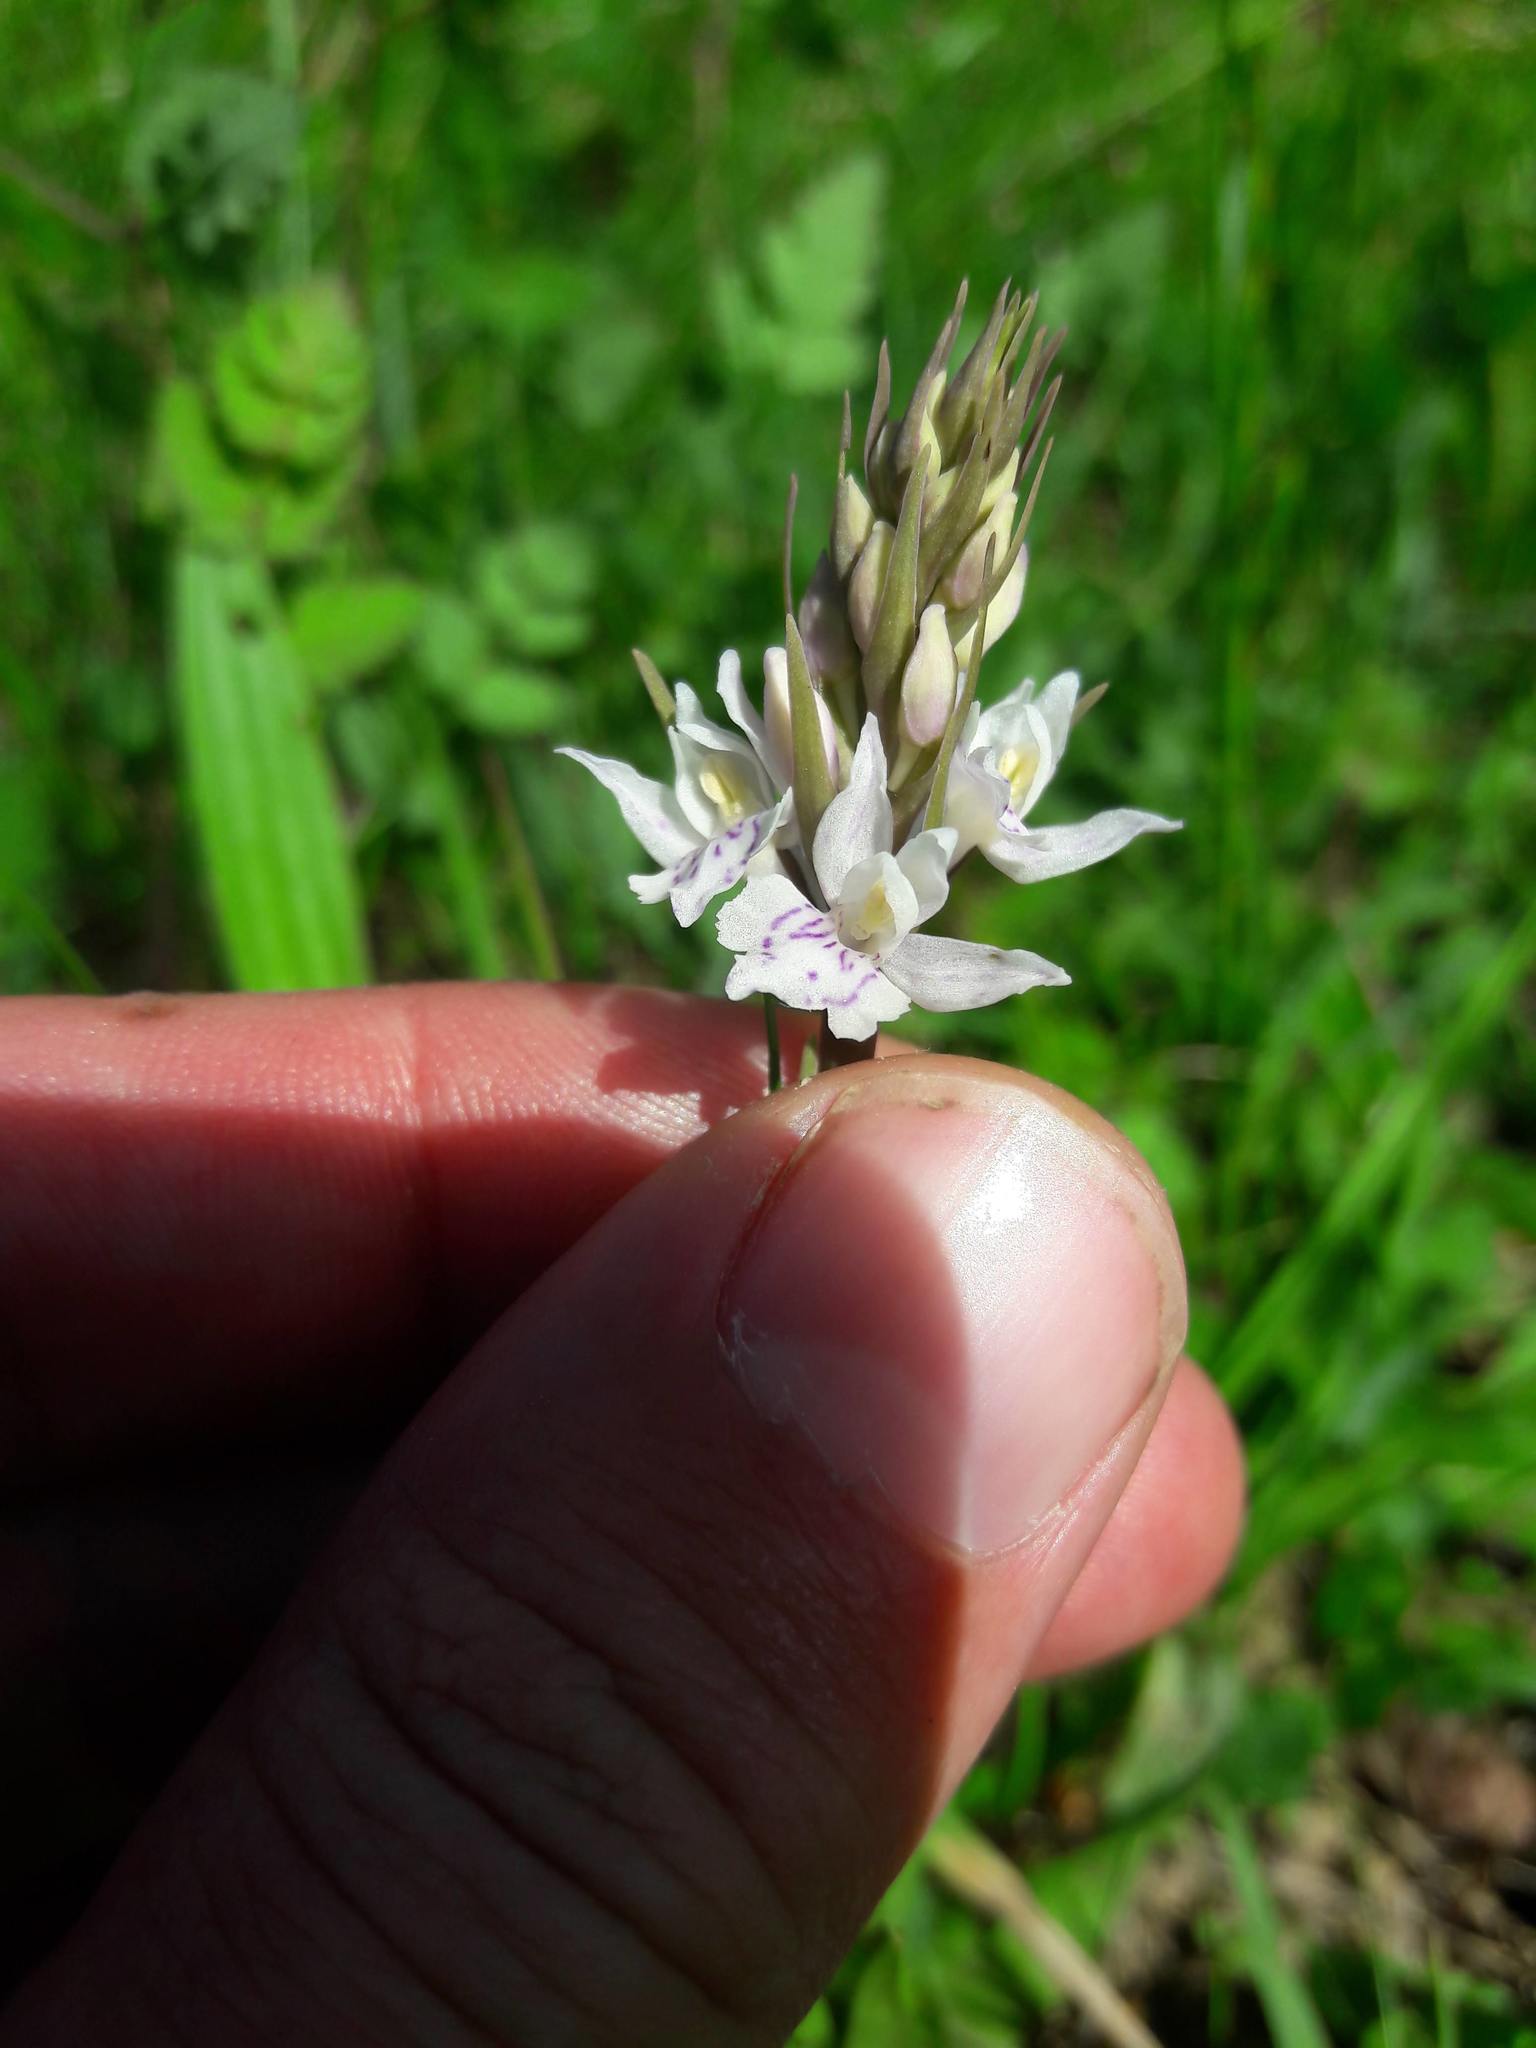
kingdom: Plantae
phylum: Tracheophyta
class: Liliopsida
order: Asparagales
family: Orchidaceae
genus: Dactylorhiza
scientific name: Dactylorhiza maculata
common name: Heath spotted-orchid
